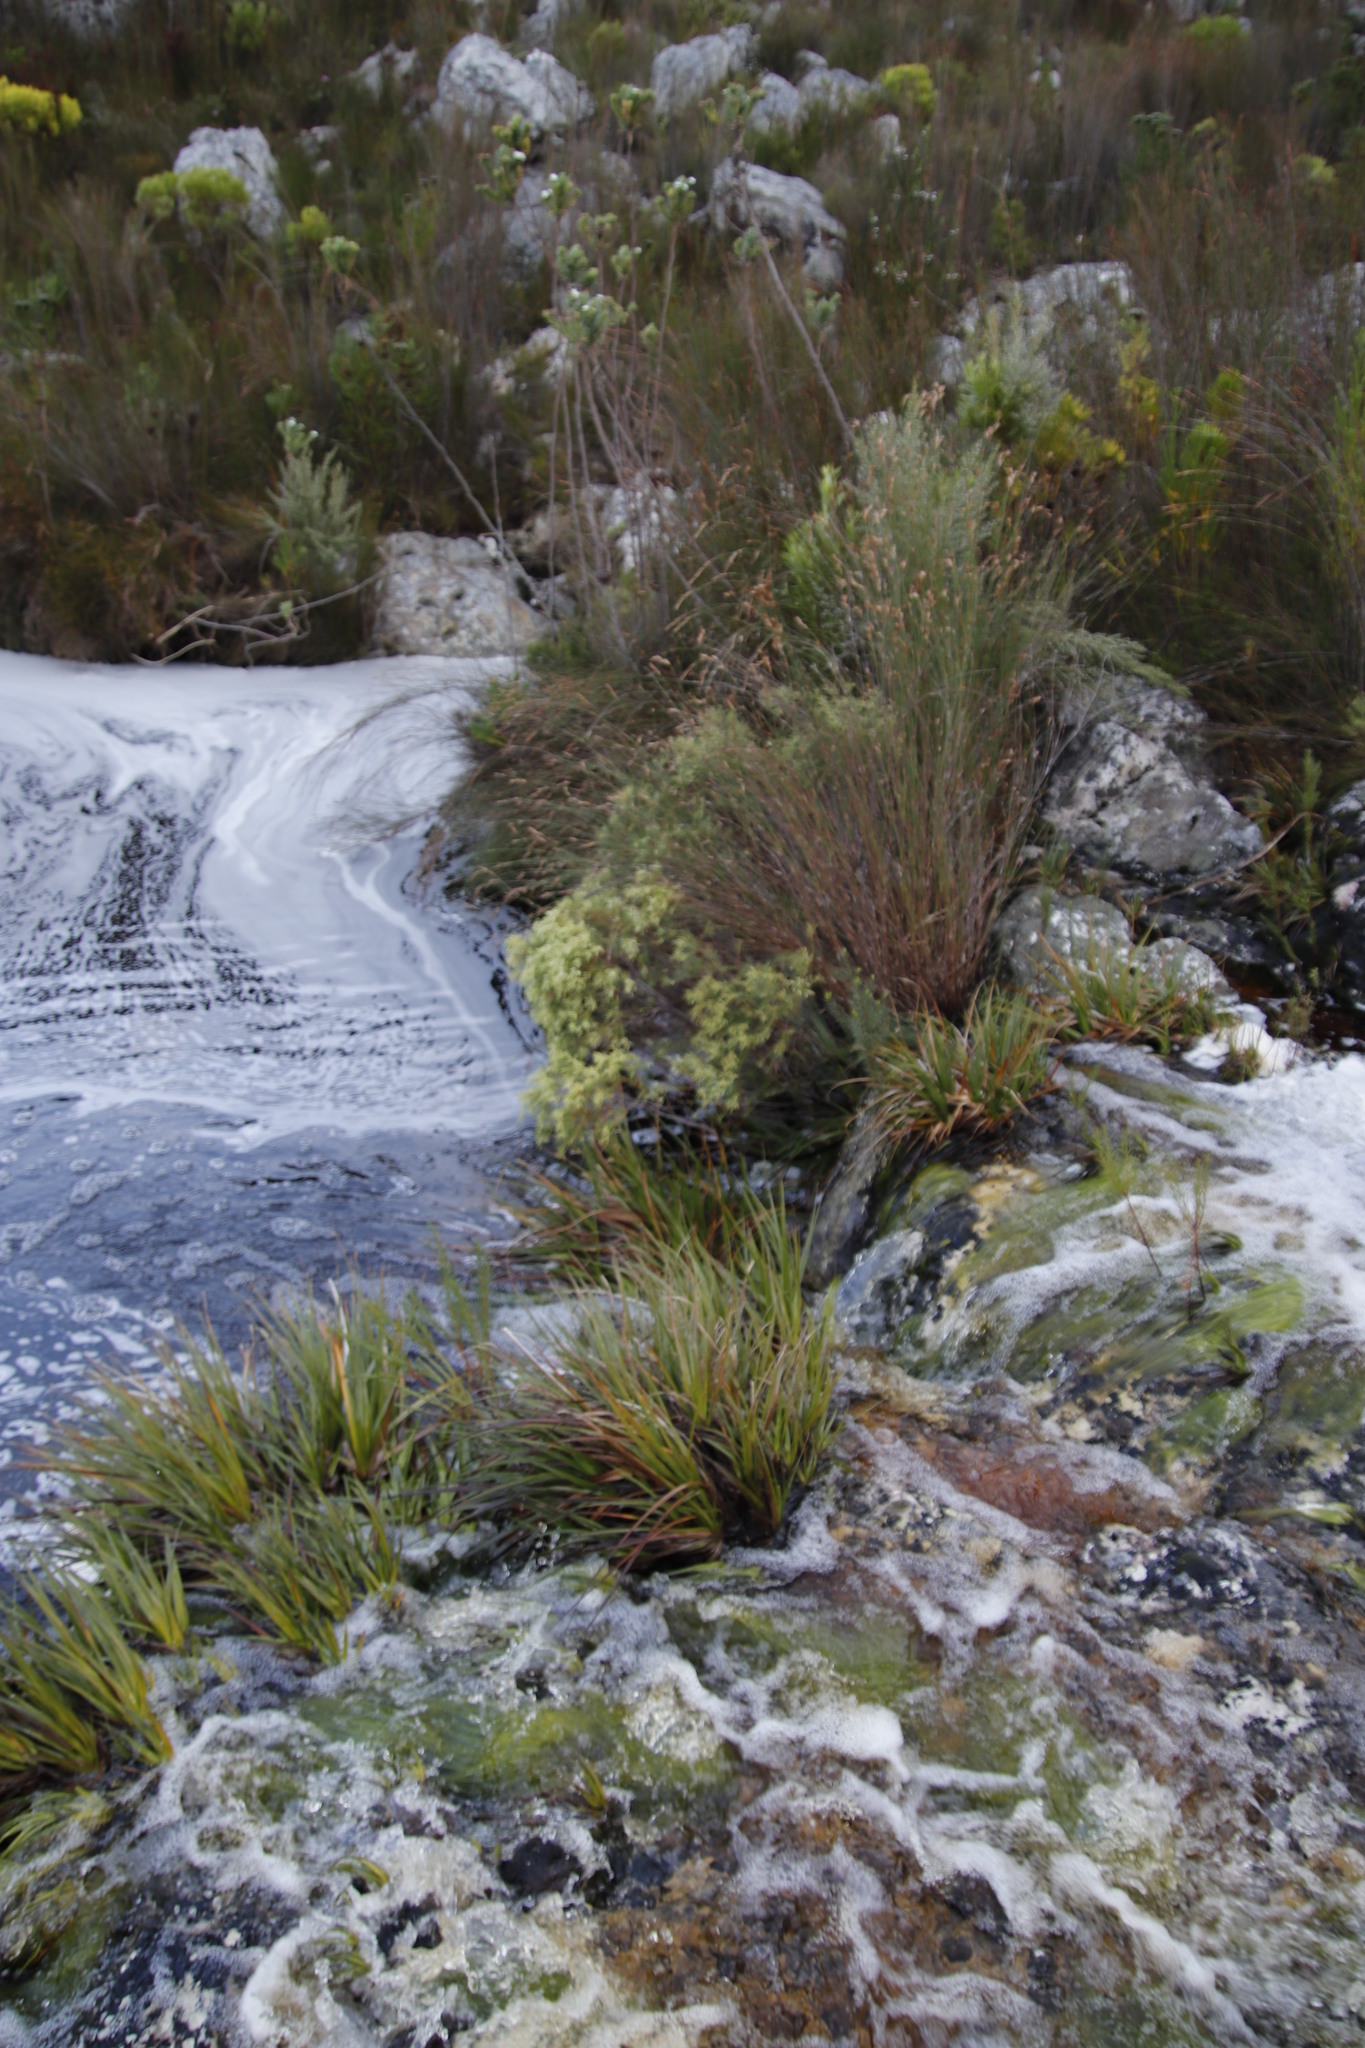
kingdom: Plantae
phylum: Tracheophyta
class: Magnoliopsida
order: Cornales
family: Grubbiaceae
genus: Grubbia
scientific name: Grubbia rosmarinifolia
